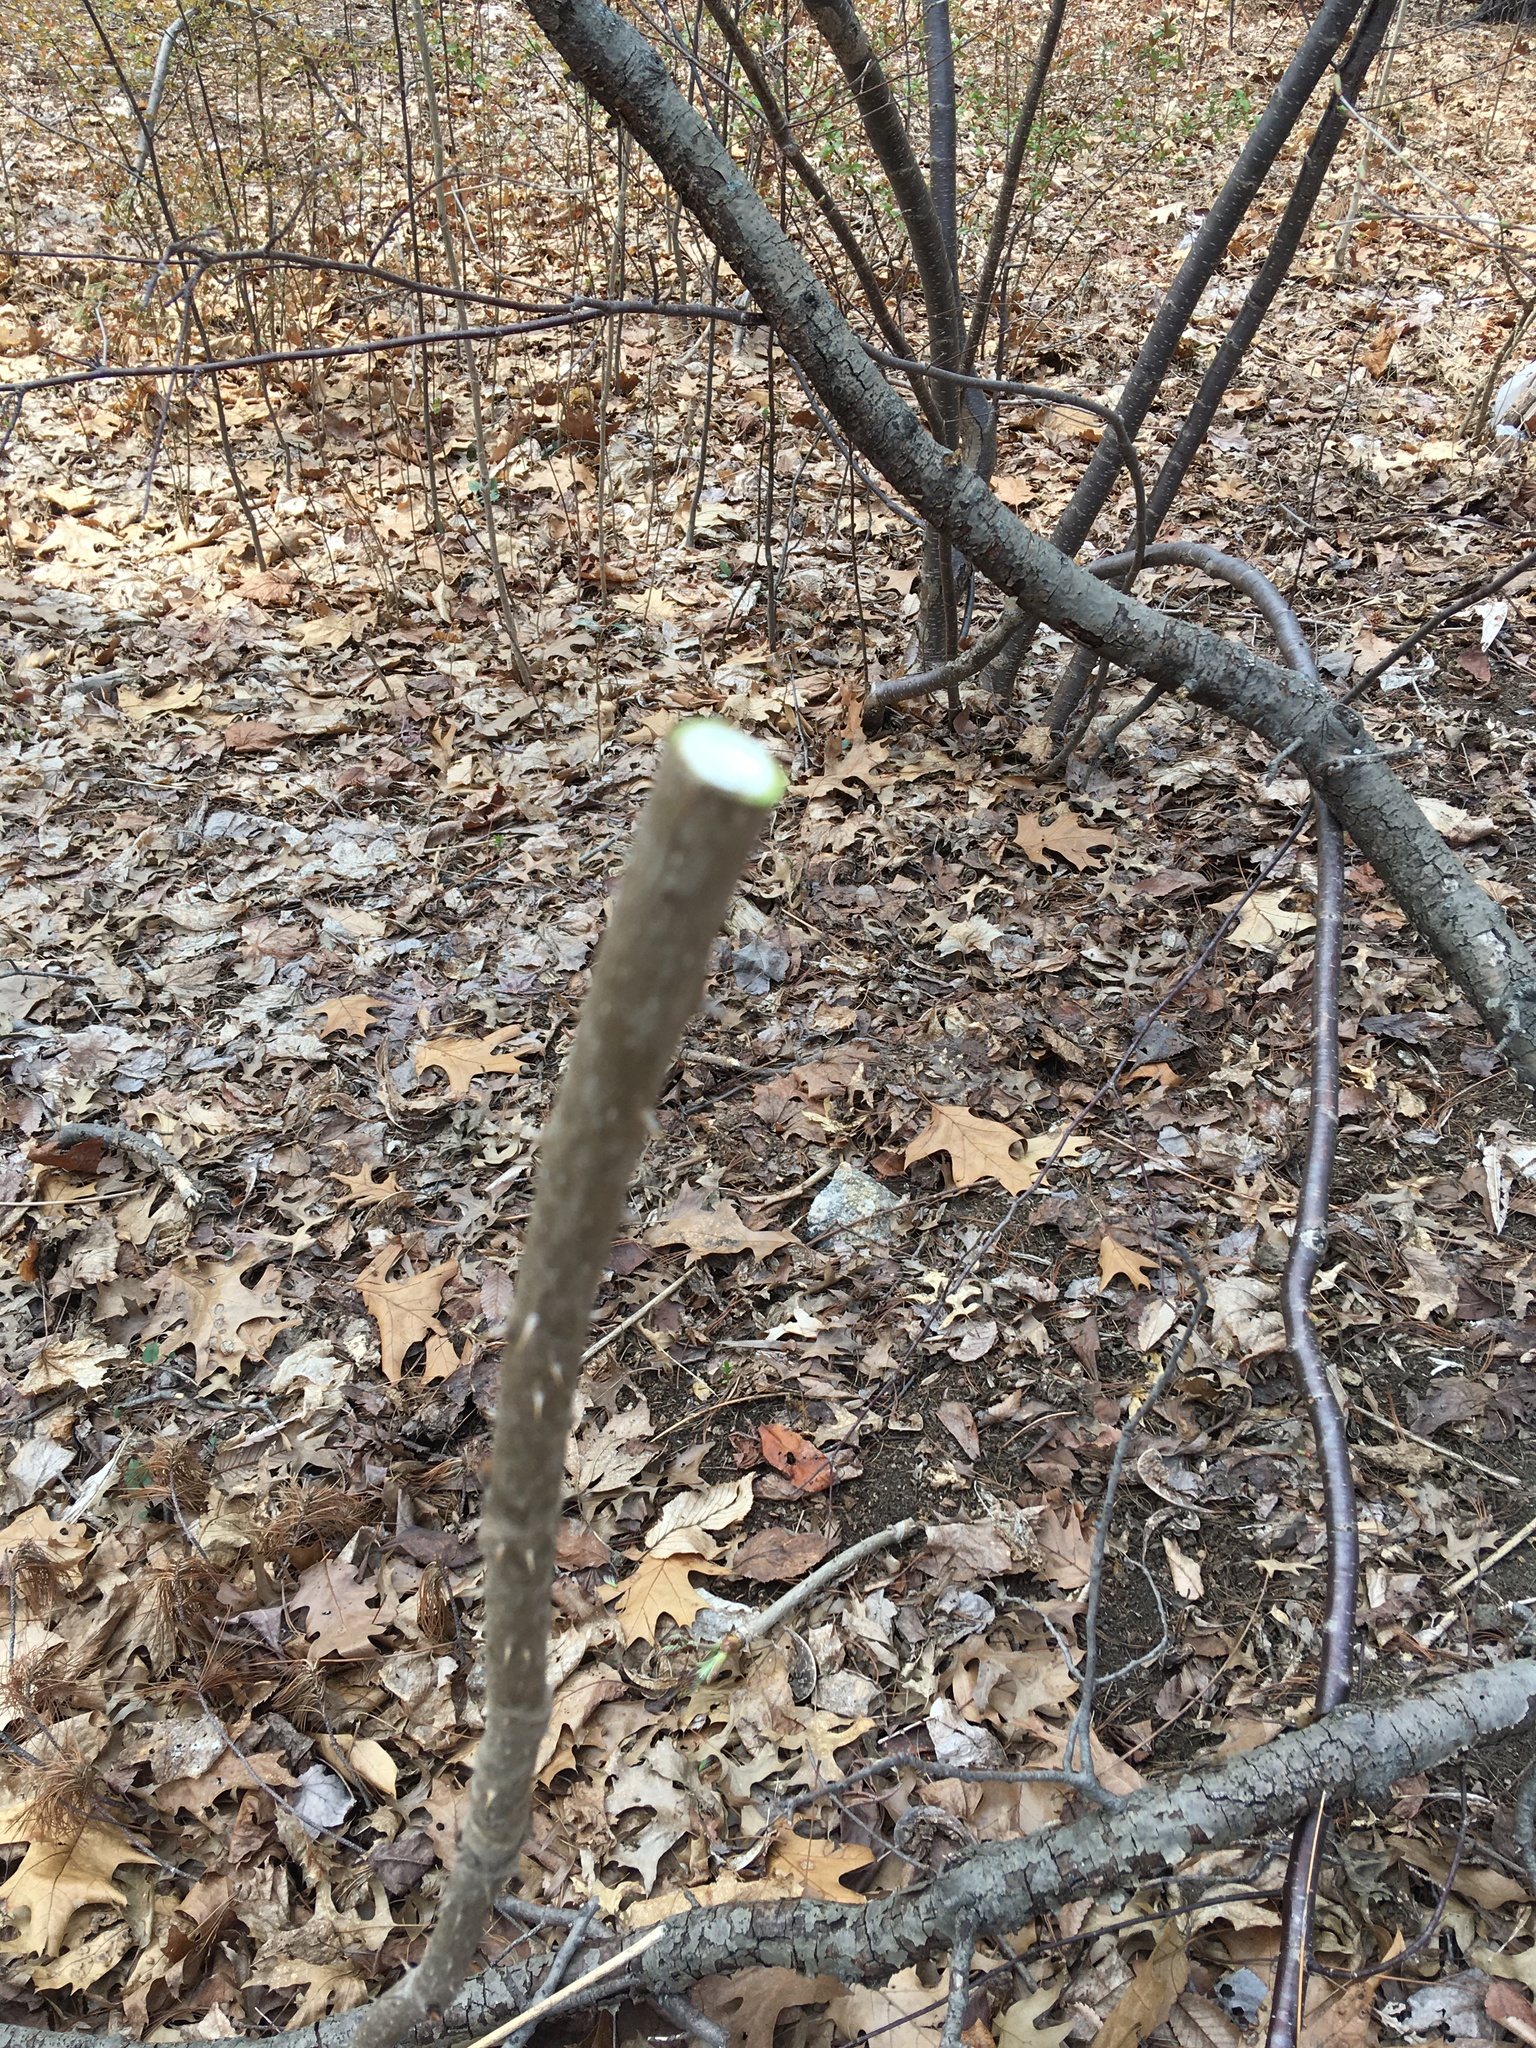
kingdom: Plantae
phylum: Tracheophyta
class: Magnoliopsida
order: Apiales
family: Araliaceae
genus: Aralia
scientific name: Aralia elata
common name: Japanese angelica-tree
